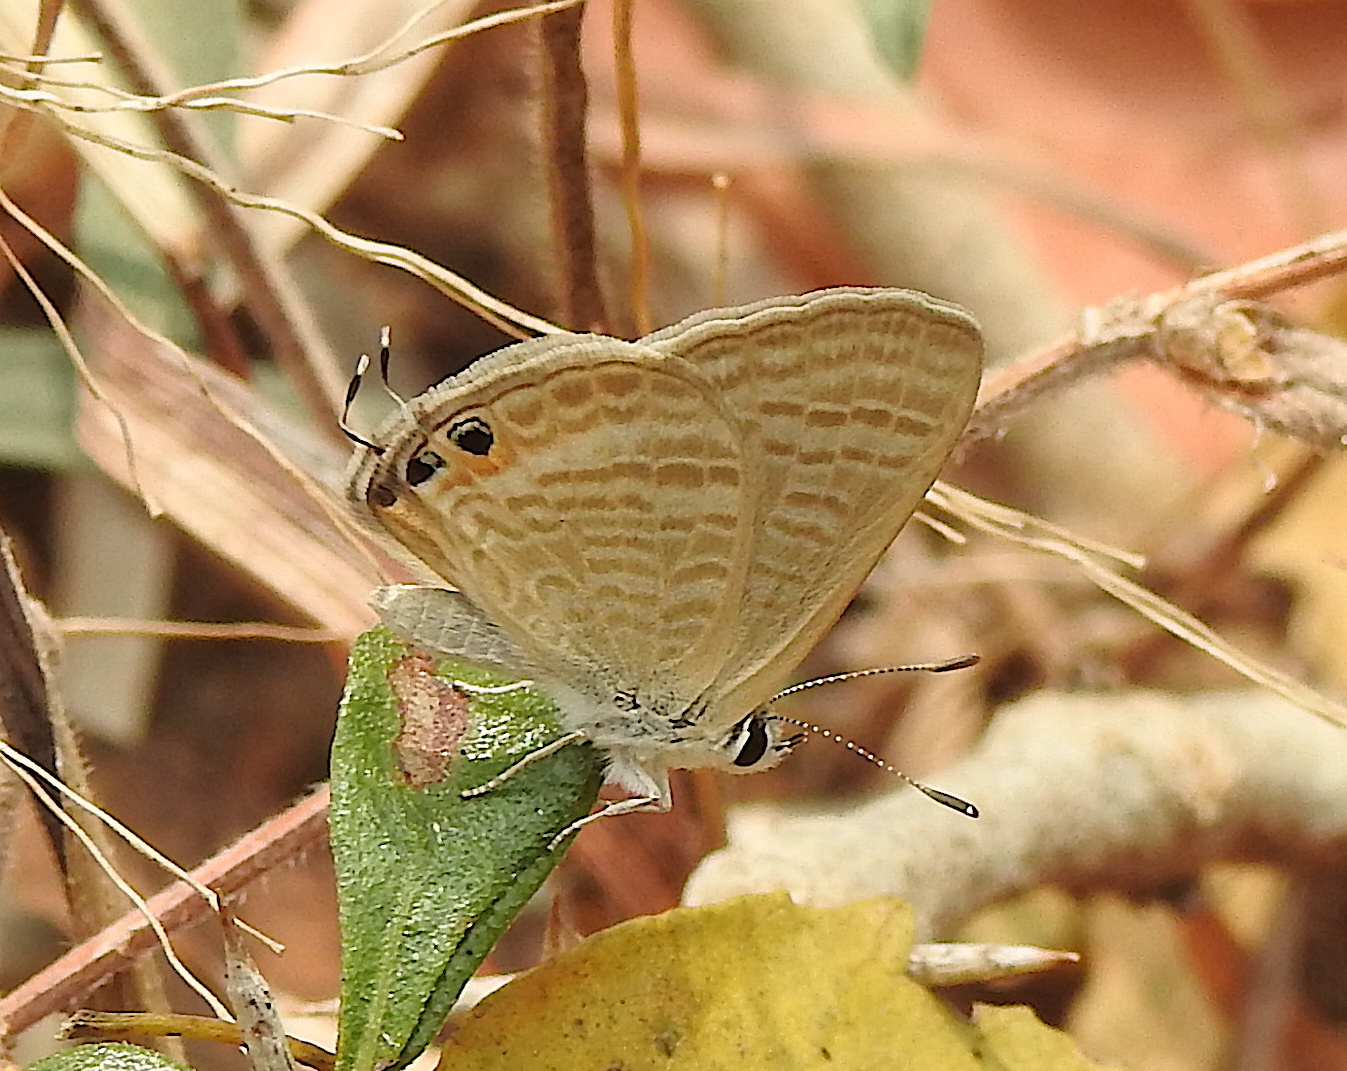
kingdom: Animalia
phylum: Arthropoda
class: Insecta
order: Lepidoptera
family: Lycaenidae
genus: Lampides
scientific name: Lampides boeticus
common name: Long-tailed blue
